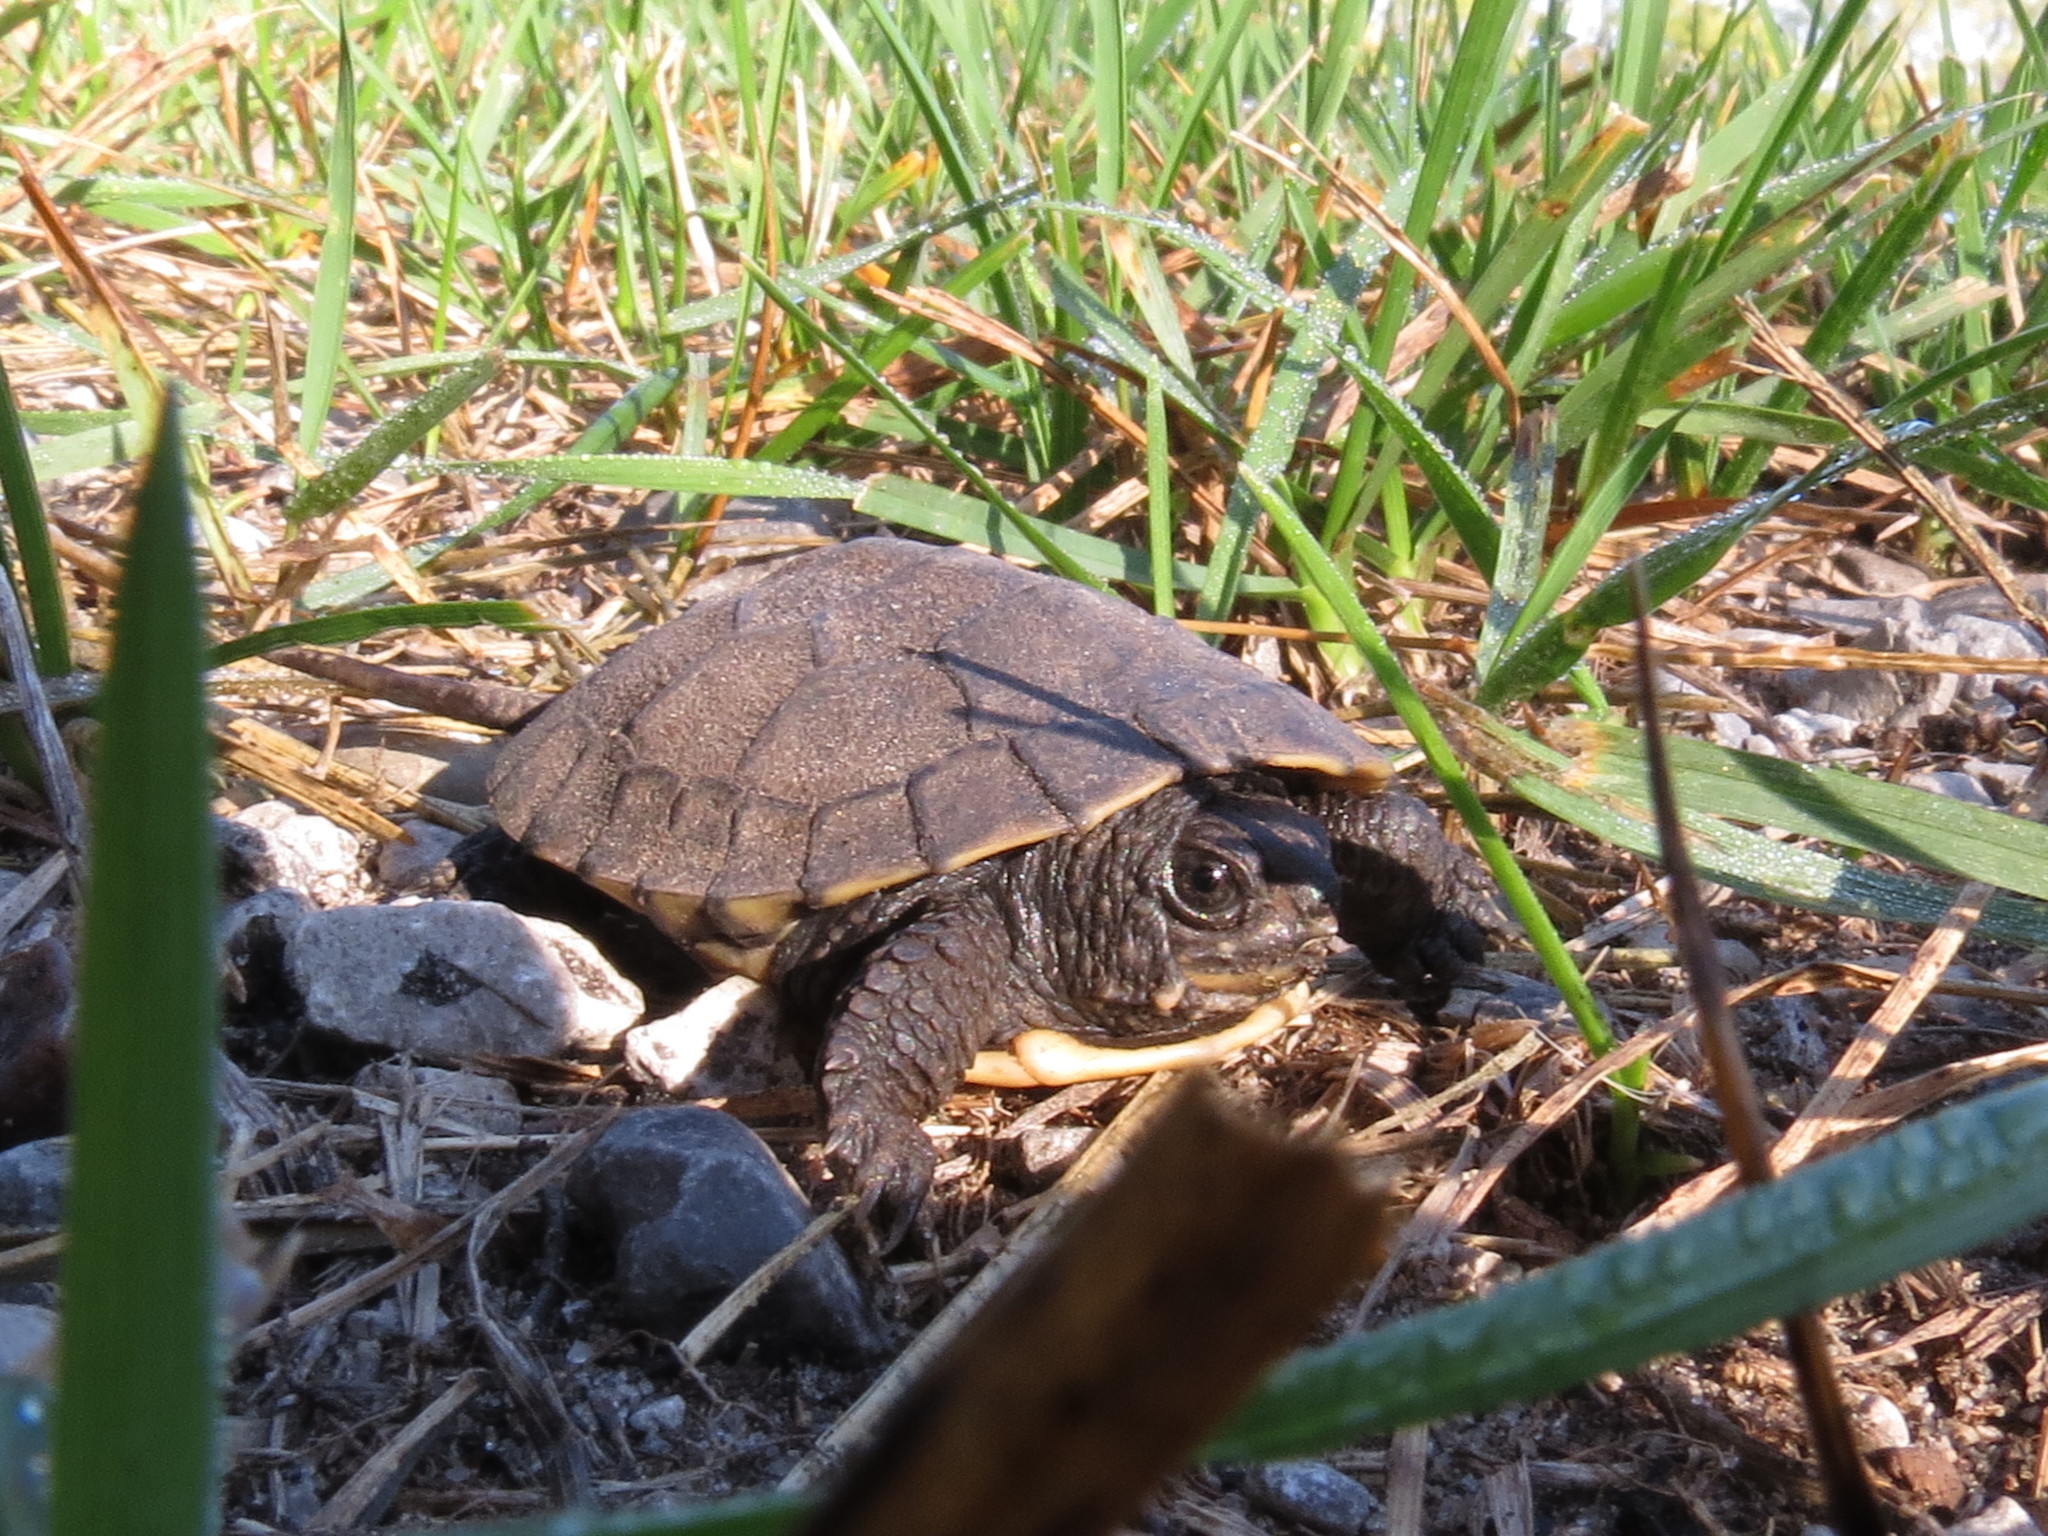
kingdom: Animalia
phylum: Chordata
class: Testudines
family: Emydidae
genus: Emys
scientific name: Emys blandingii
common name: Blanding's turtle
